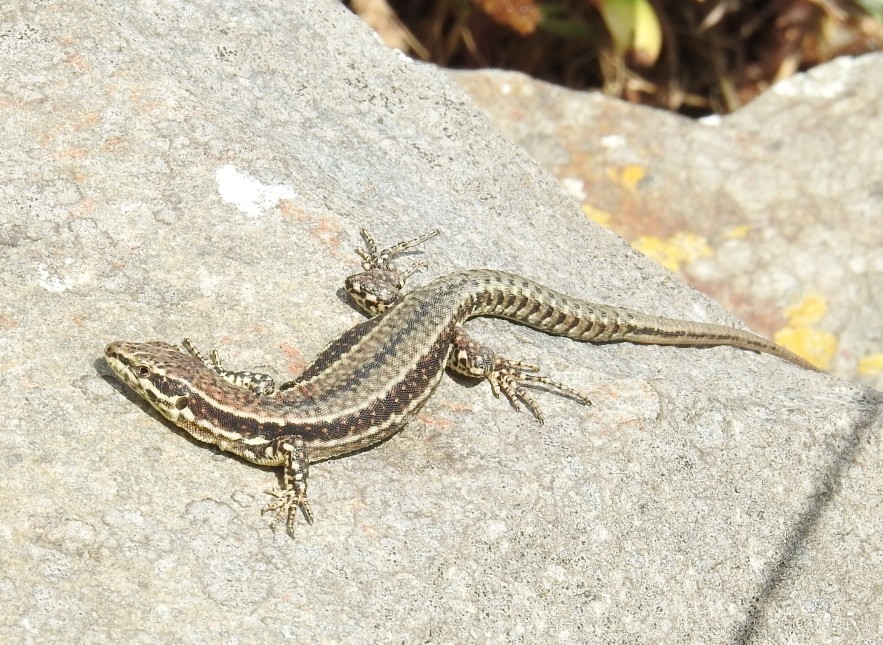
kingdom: Animalia
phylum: Chordata
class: Squamata
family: Lacertidae
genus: Podarcis
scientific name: Podarcis muralis
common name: Common wall lizard
